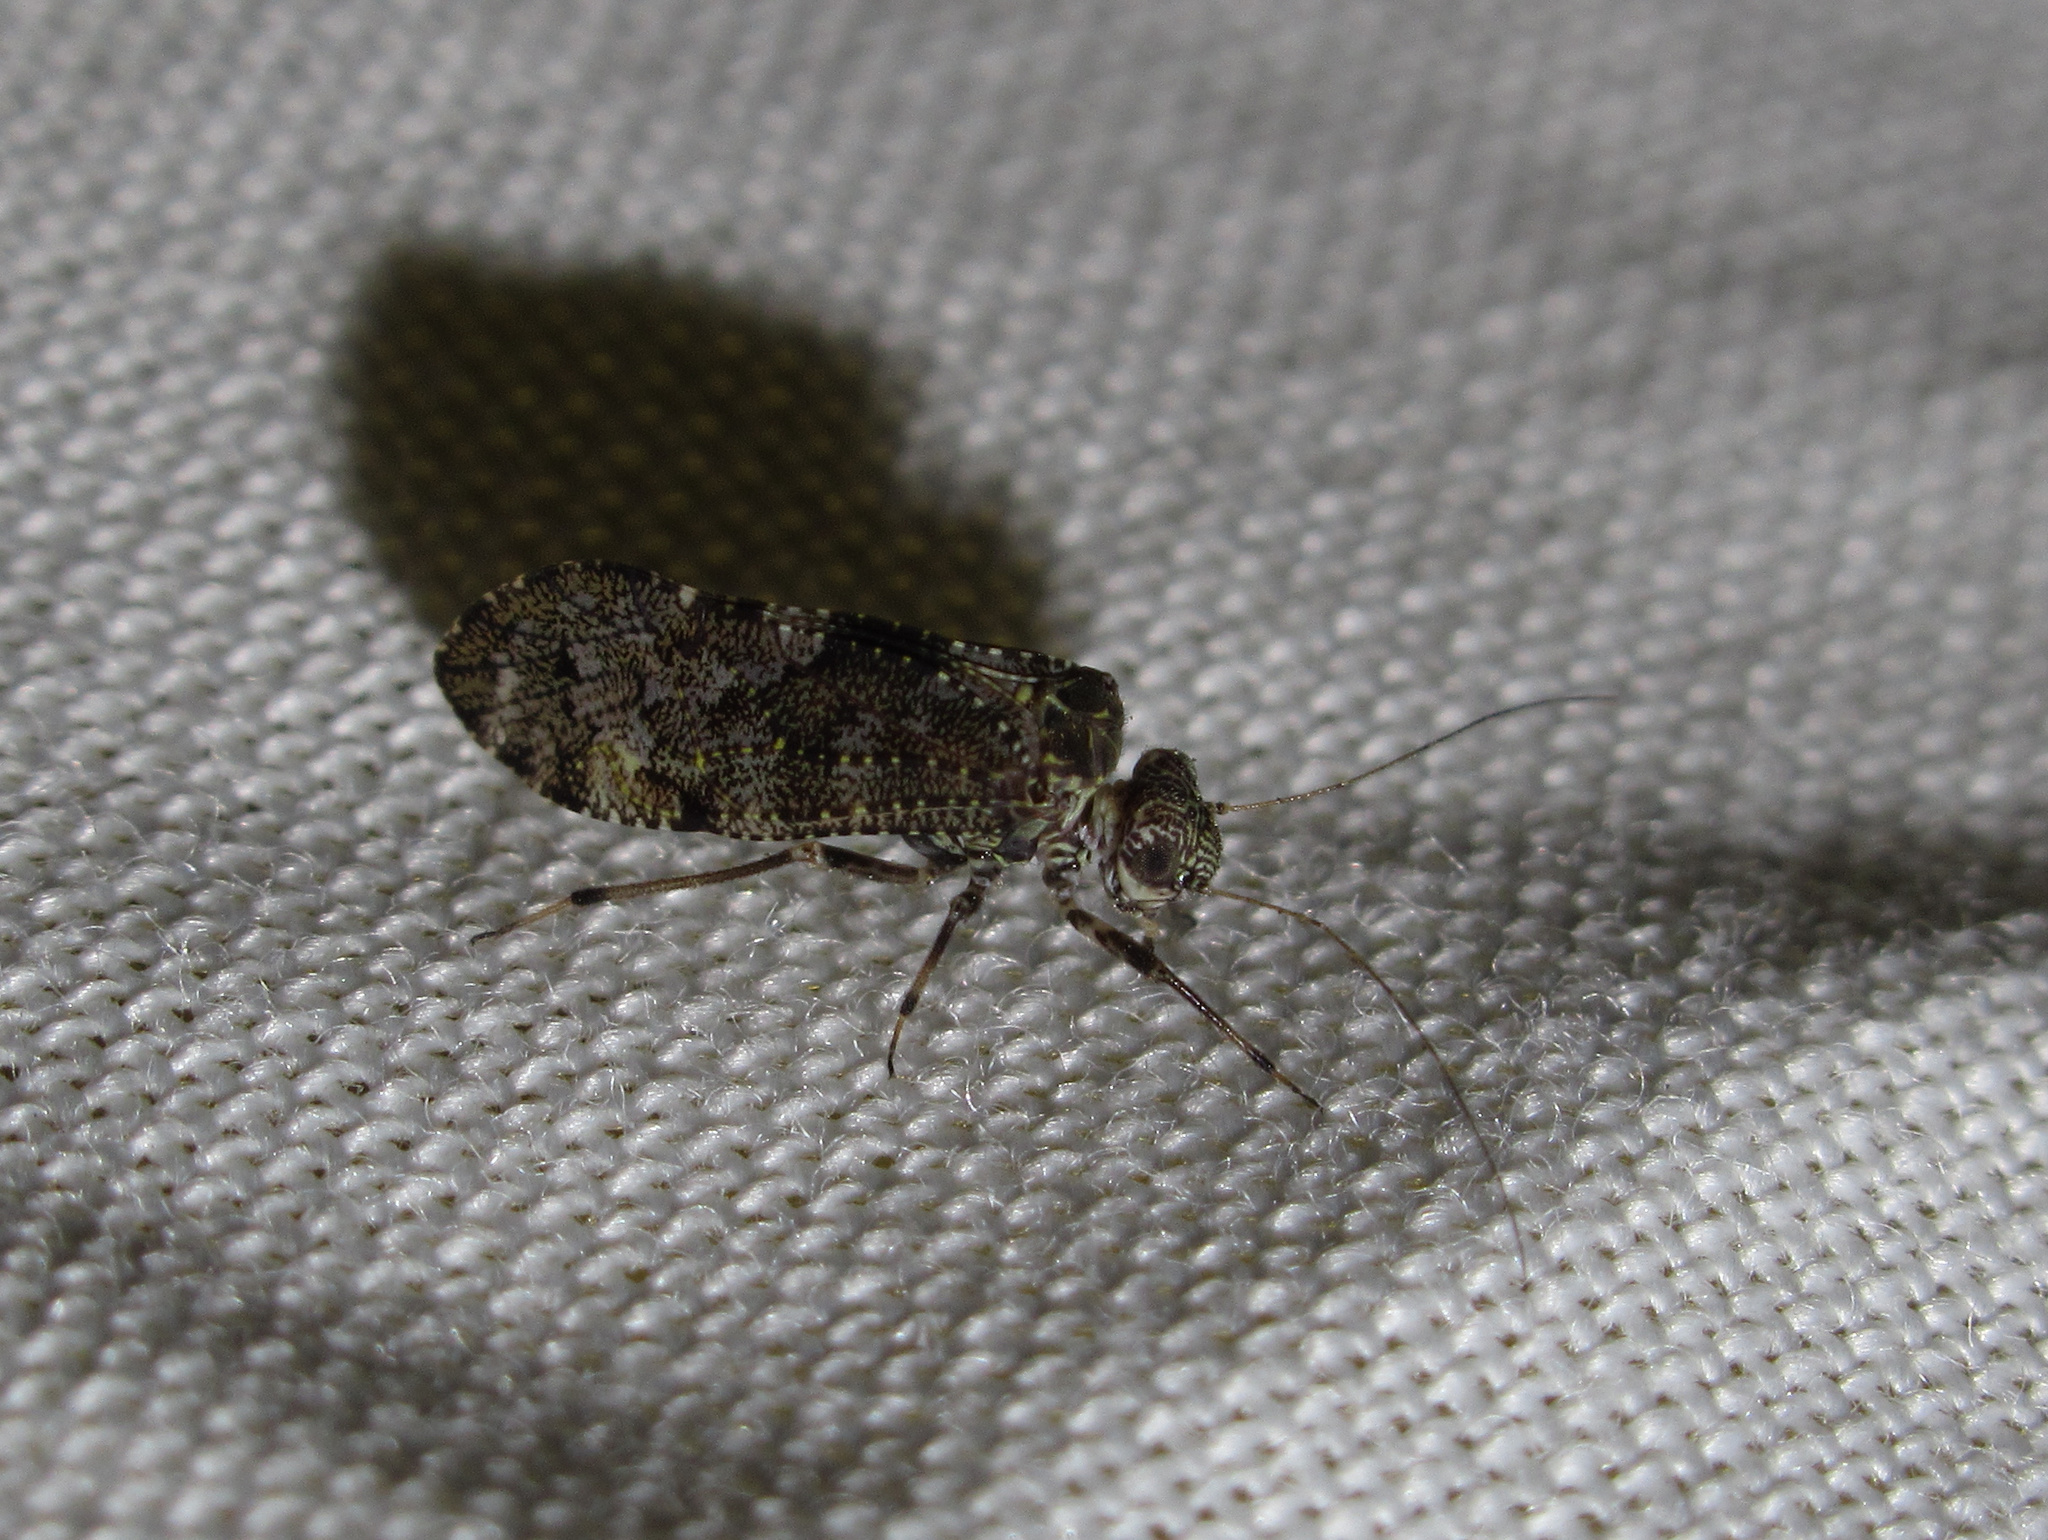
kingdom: Animalia
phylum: Arthropoda
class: Insecta
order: Psocodea
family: Myopsocidae
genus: Nimbopsocus
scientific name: Nimbopsocus australis
